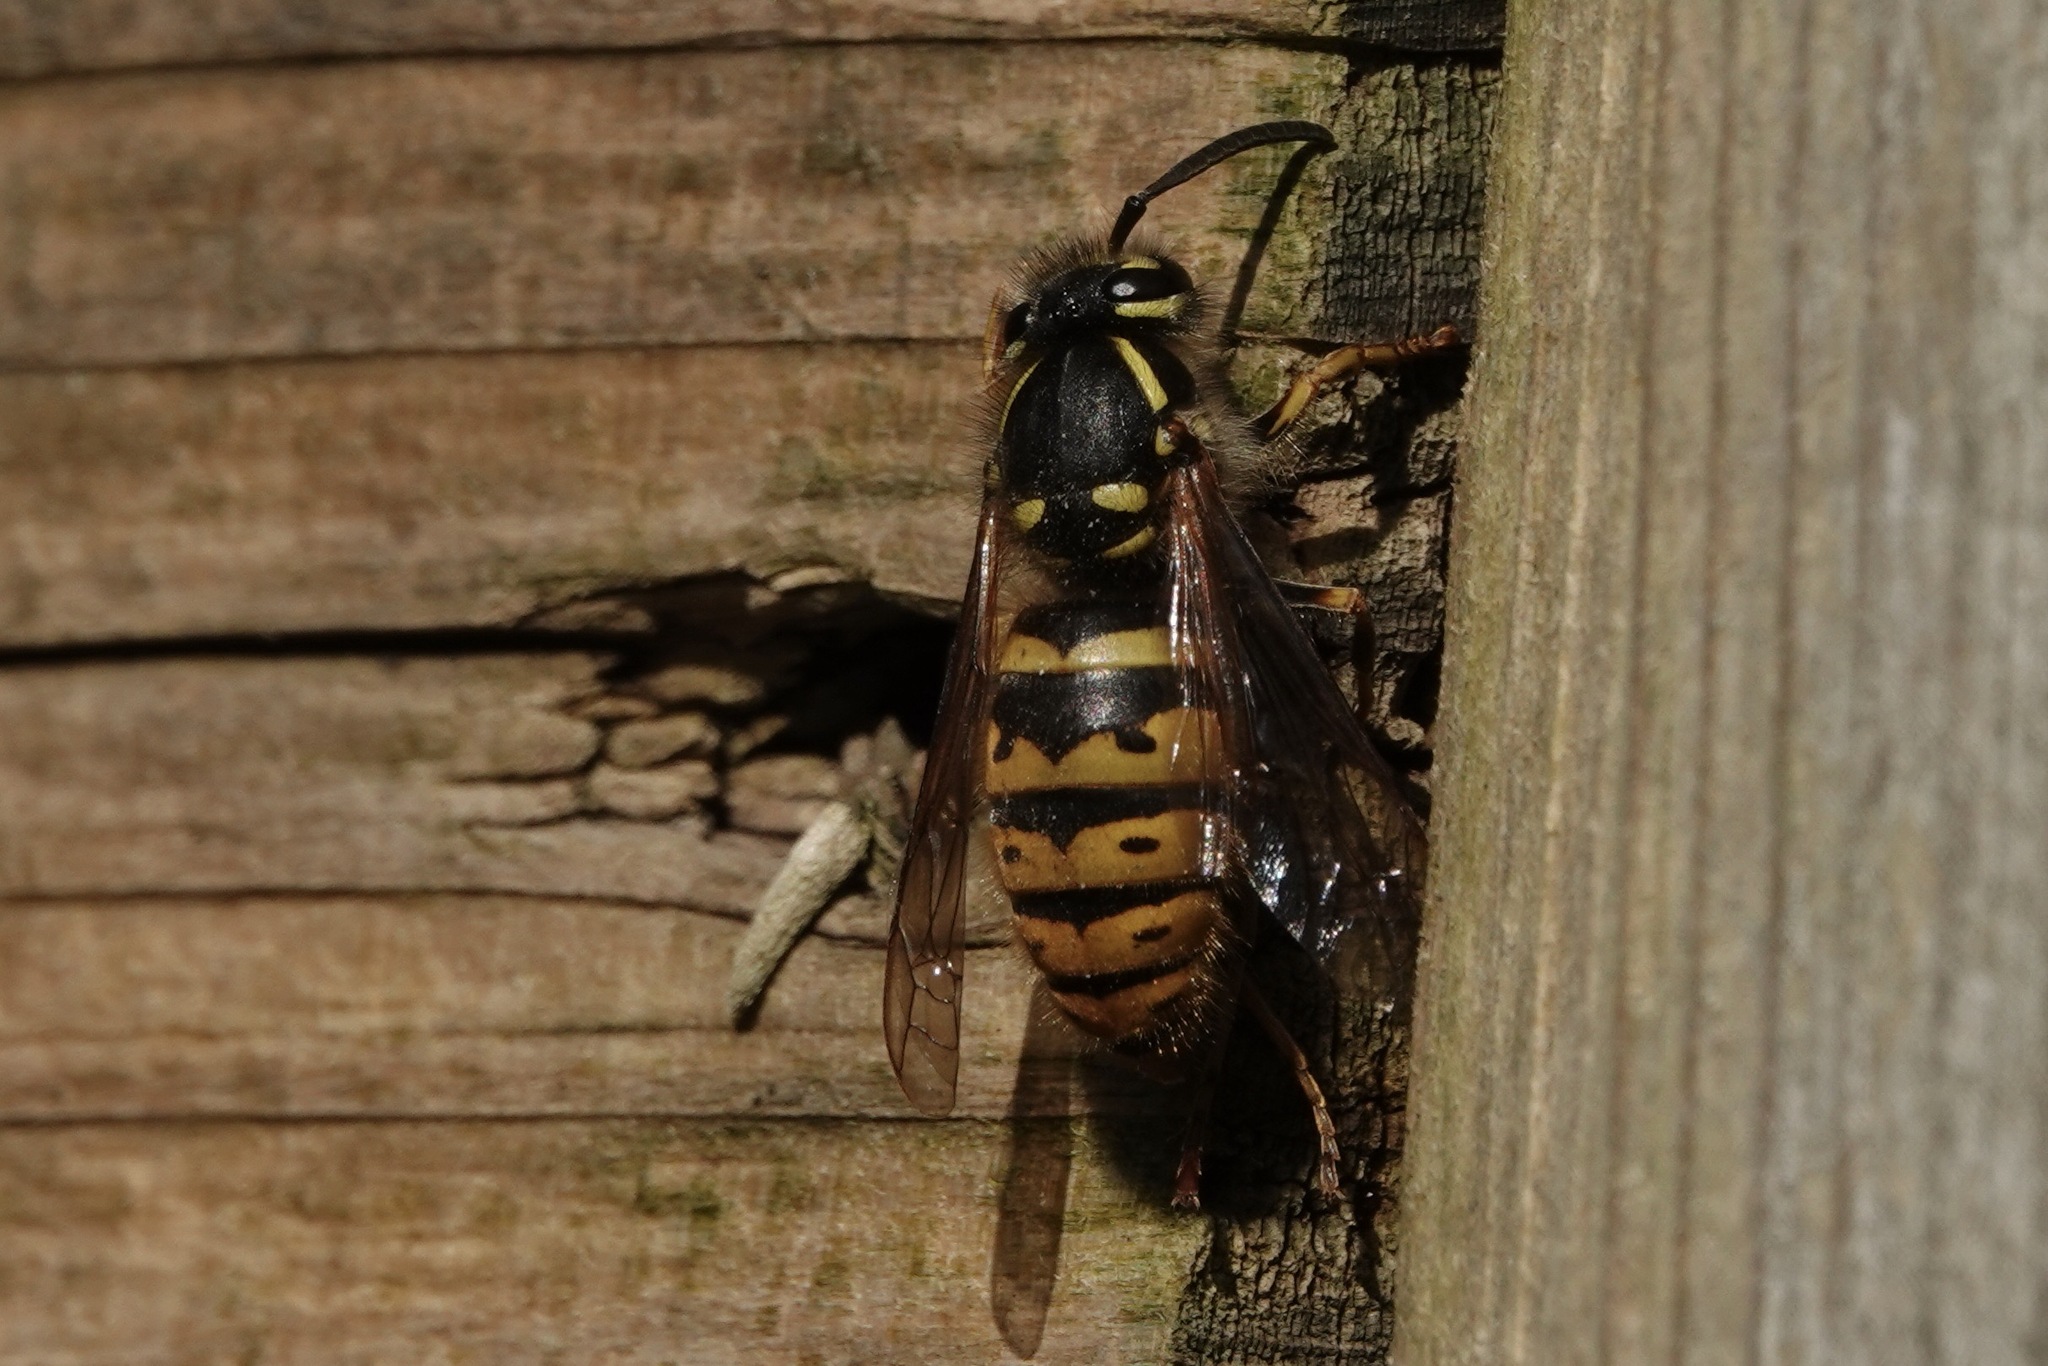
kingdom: Animalia
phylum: Arthropoda
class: Insecta
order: Hymenoptera
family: Vespidae
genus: Vespula
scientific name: Vespula vulgaris
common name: Common wasp
